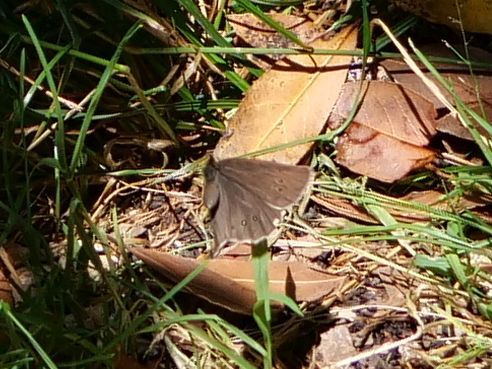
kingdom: Animalia
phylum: Arthropoda
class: Insecta
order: Lepidoptera
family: Nymphalidae
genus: Aphantopus
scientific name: Aphantopus hyperantus
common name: Ringlet
